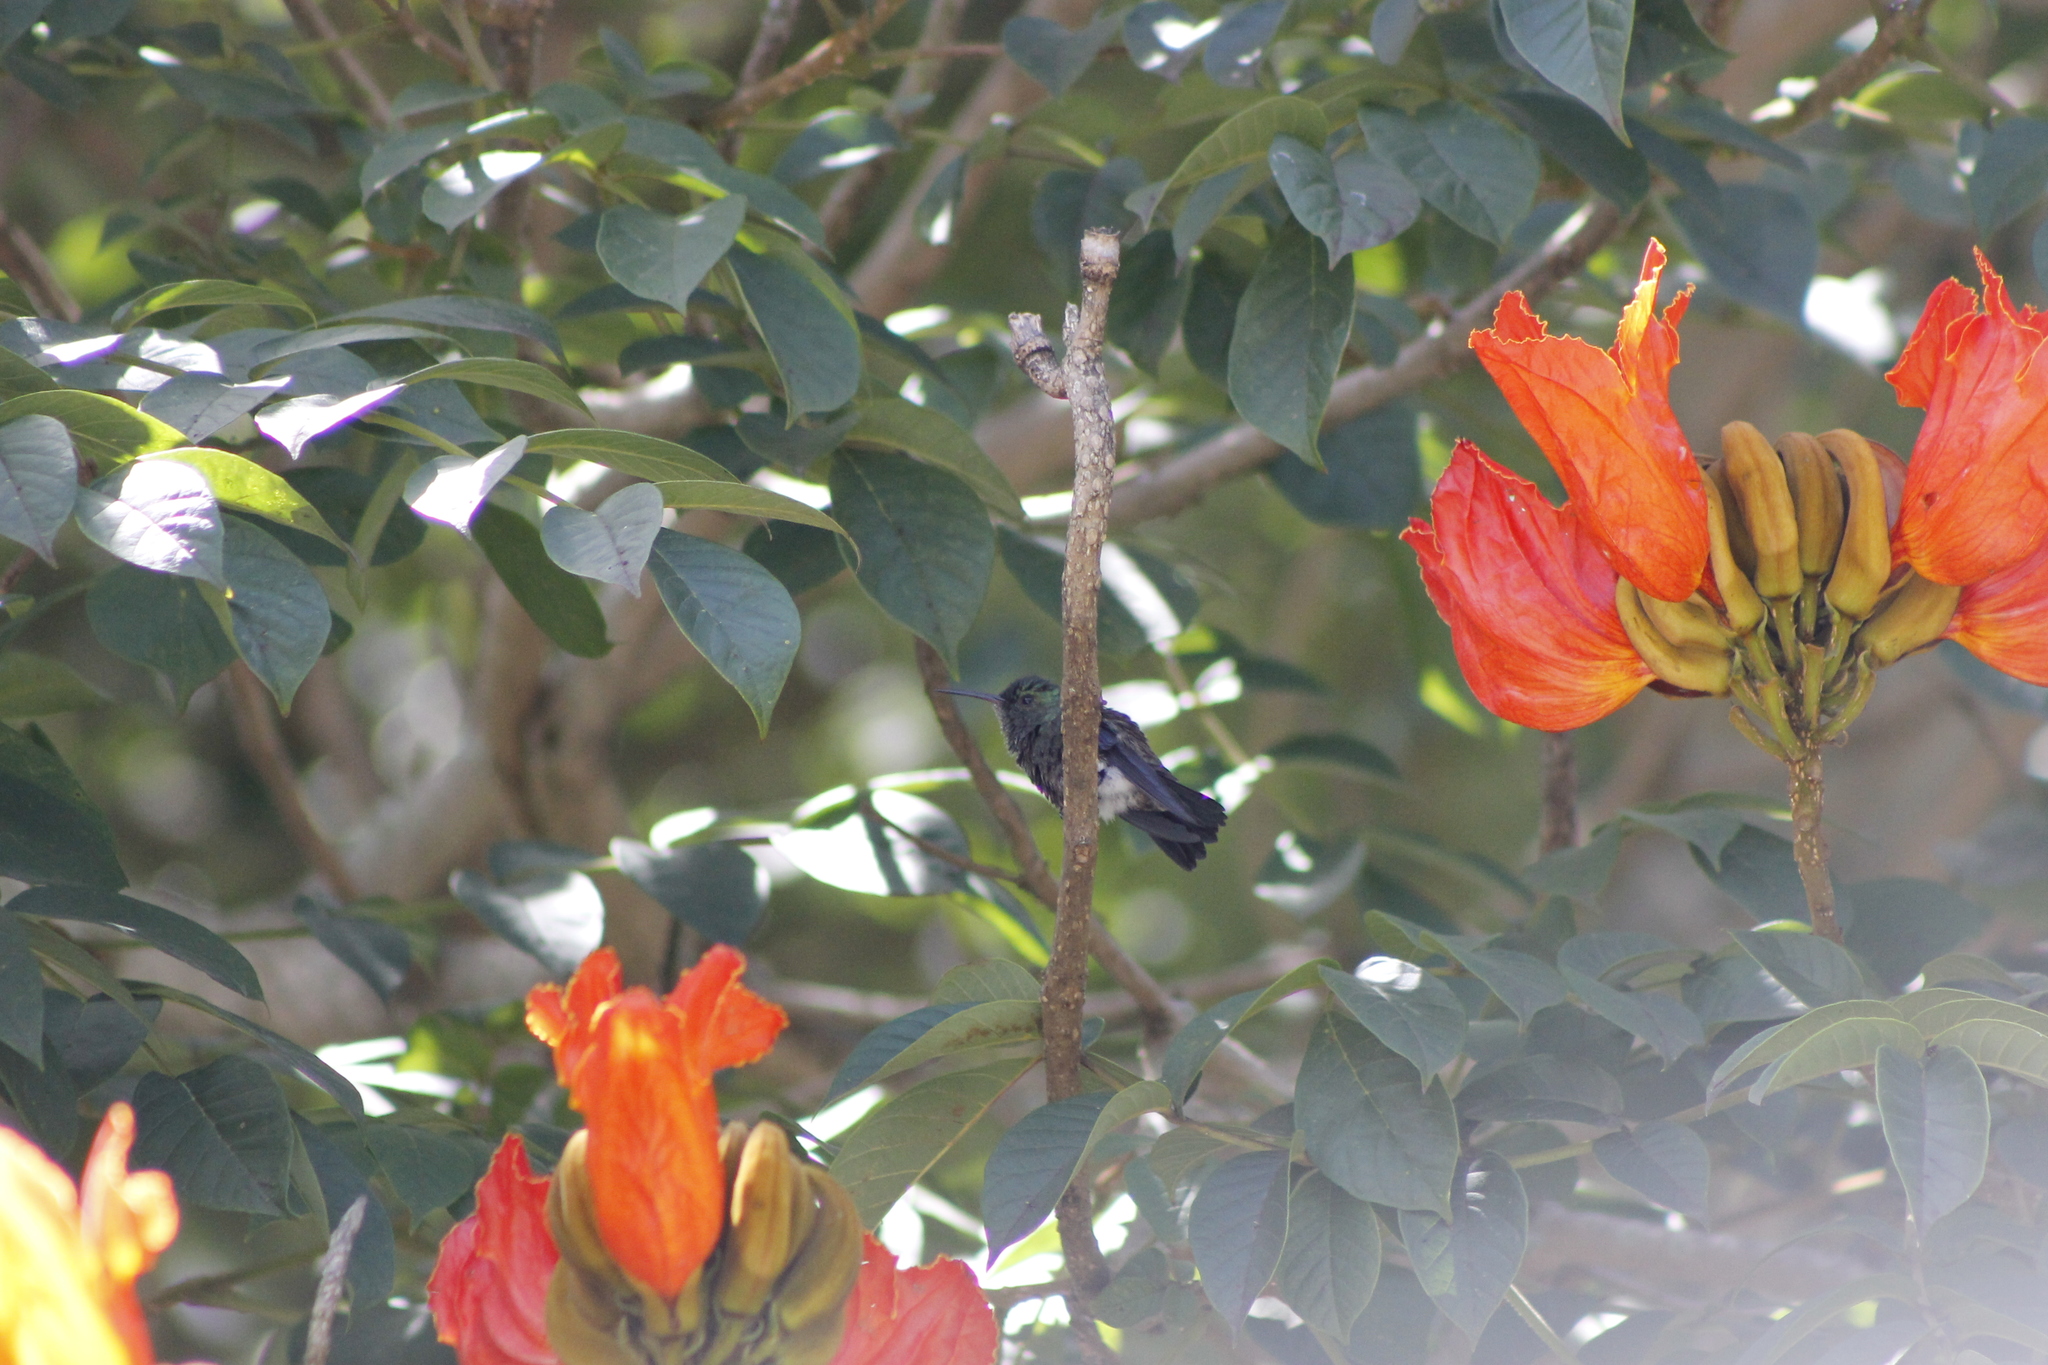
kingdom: Animalia
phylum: Chordata
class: Aves
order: Apodiformes
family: Trochilidae
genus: Saucerottia
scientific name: Saucerottia saucerottei
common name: Steely-vented hummingbird
